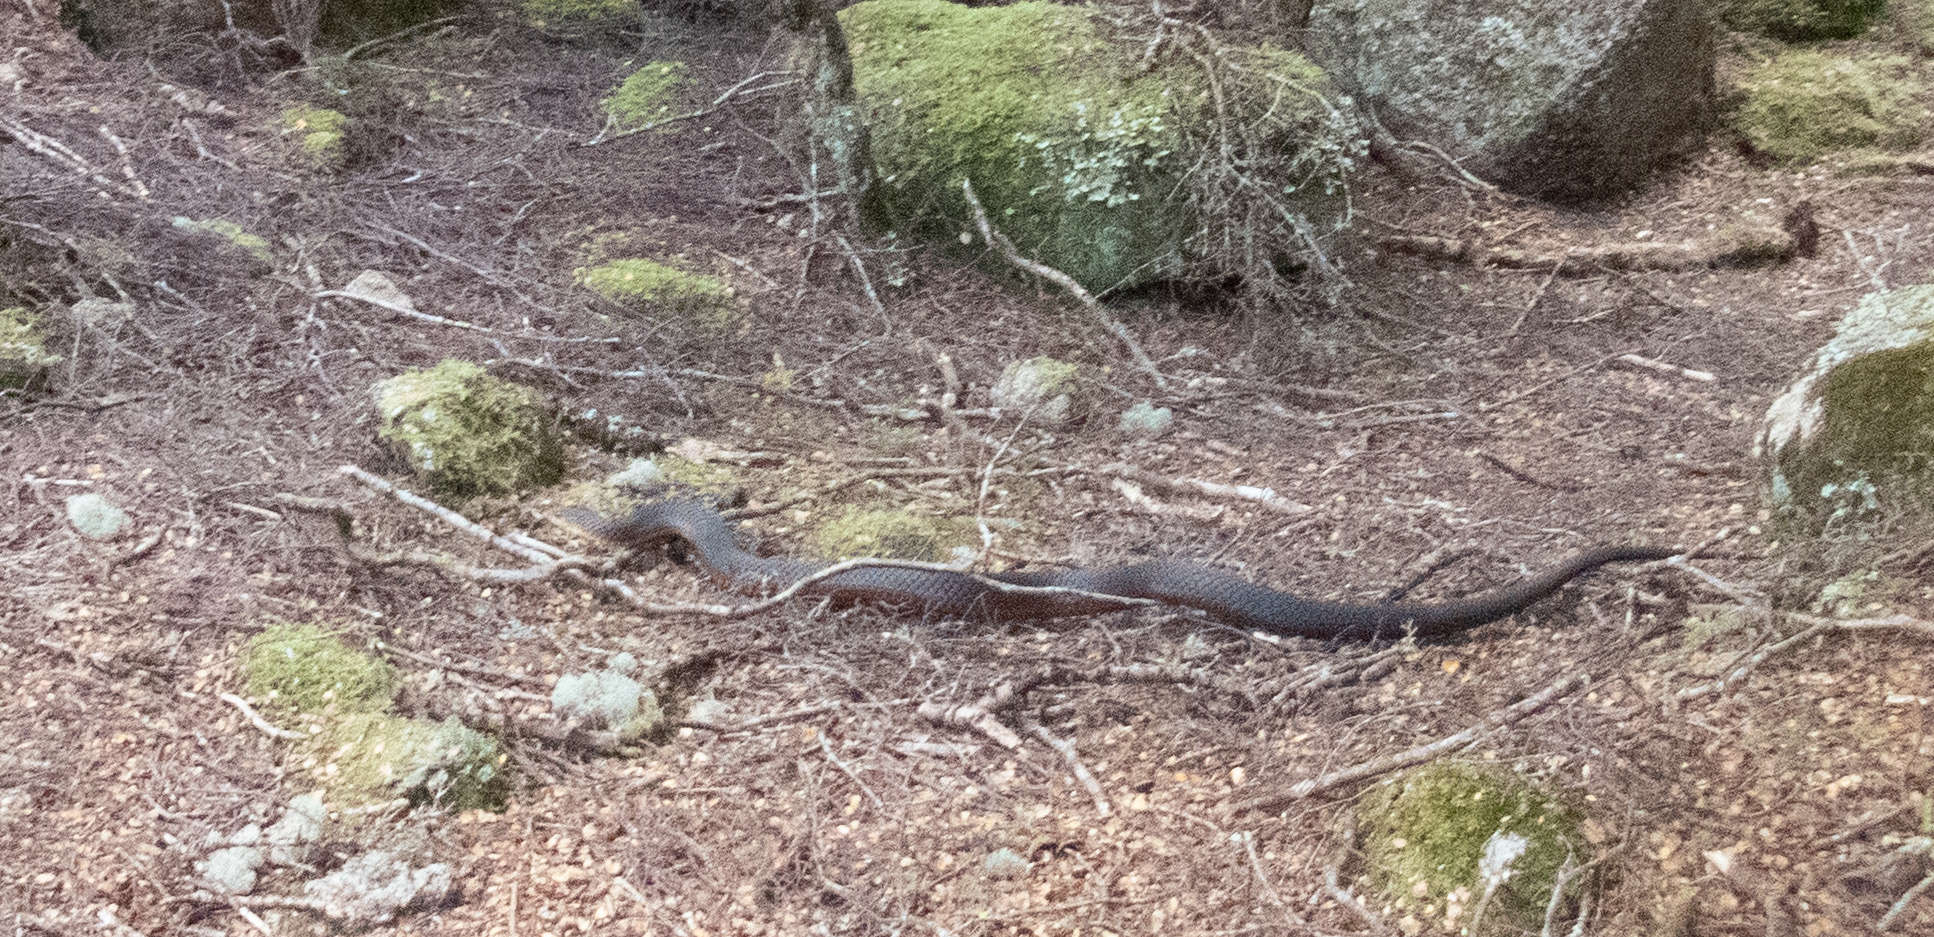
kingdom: Animalia
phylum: Chordata
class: Squamata
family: Elapidae
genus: Austrelaps
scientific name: Austrelaps superbus
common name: Copperhead snake
